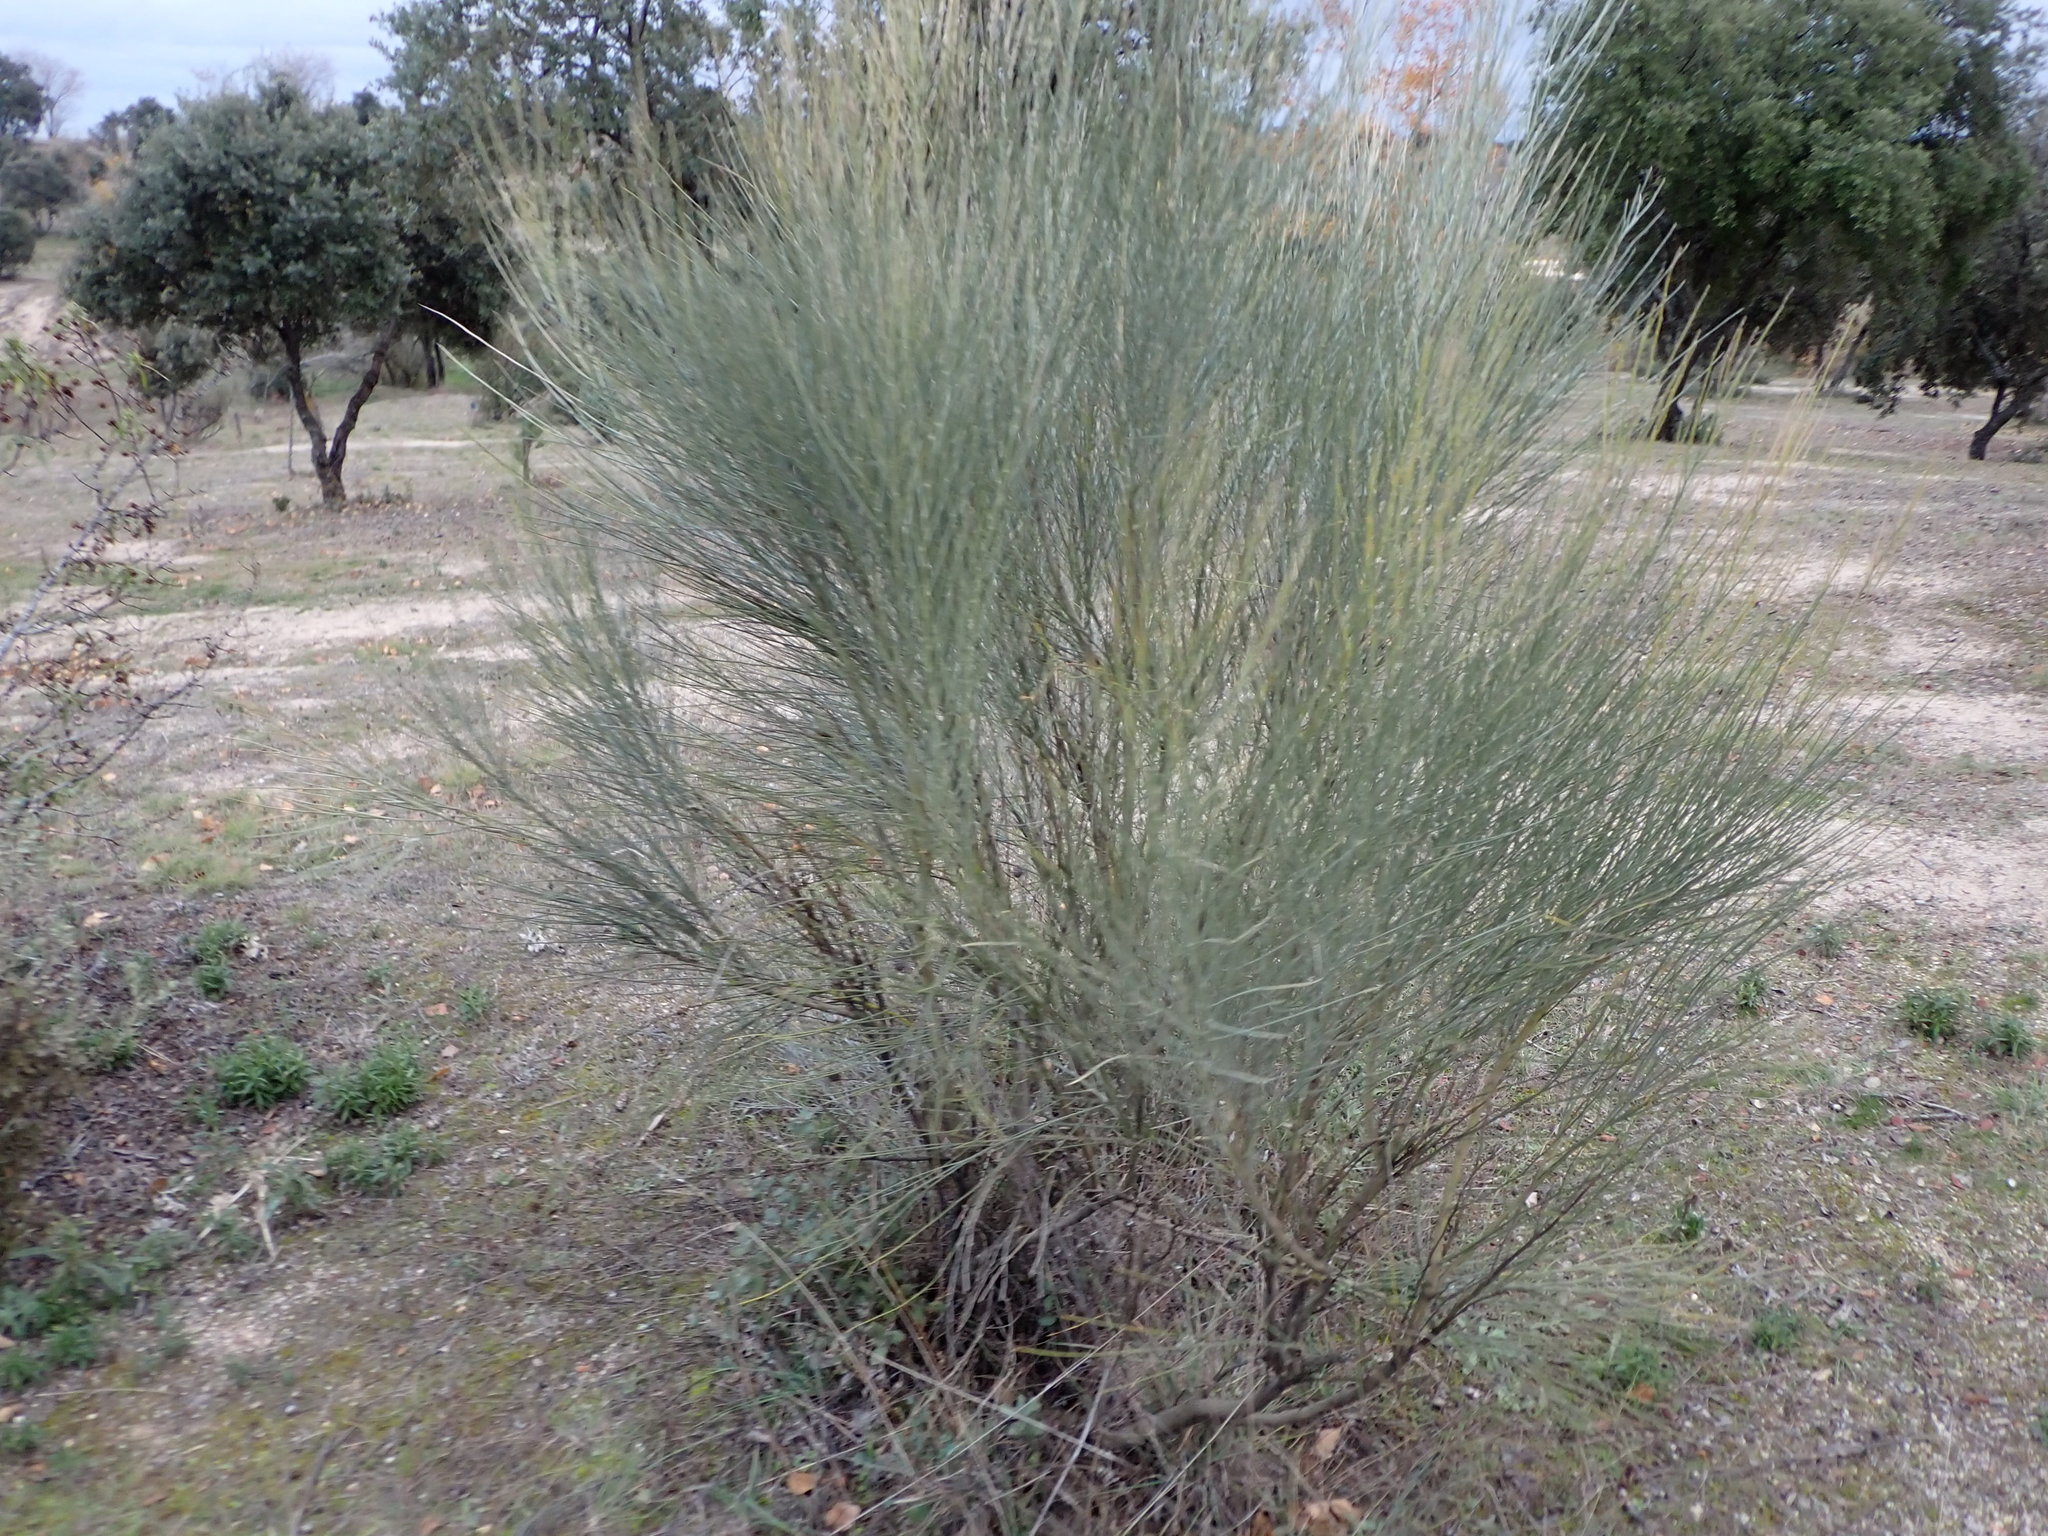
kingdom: Plantae
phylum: Tracheophyta
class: Magnoliopsida
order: Fabales
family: Fabaceae
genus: Retama
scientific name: Retama sphaerocarpa
